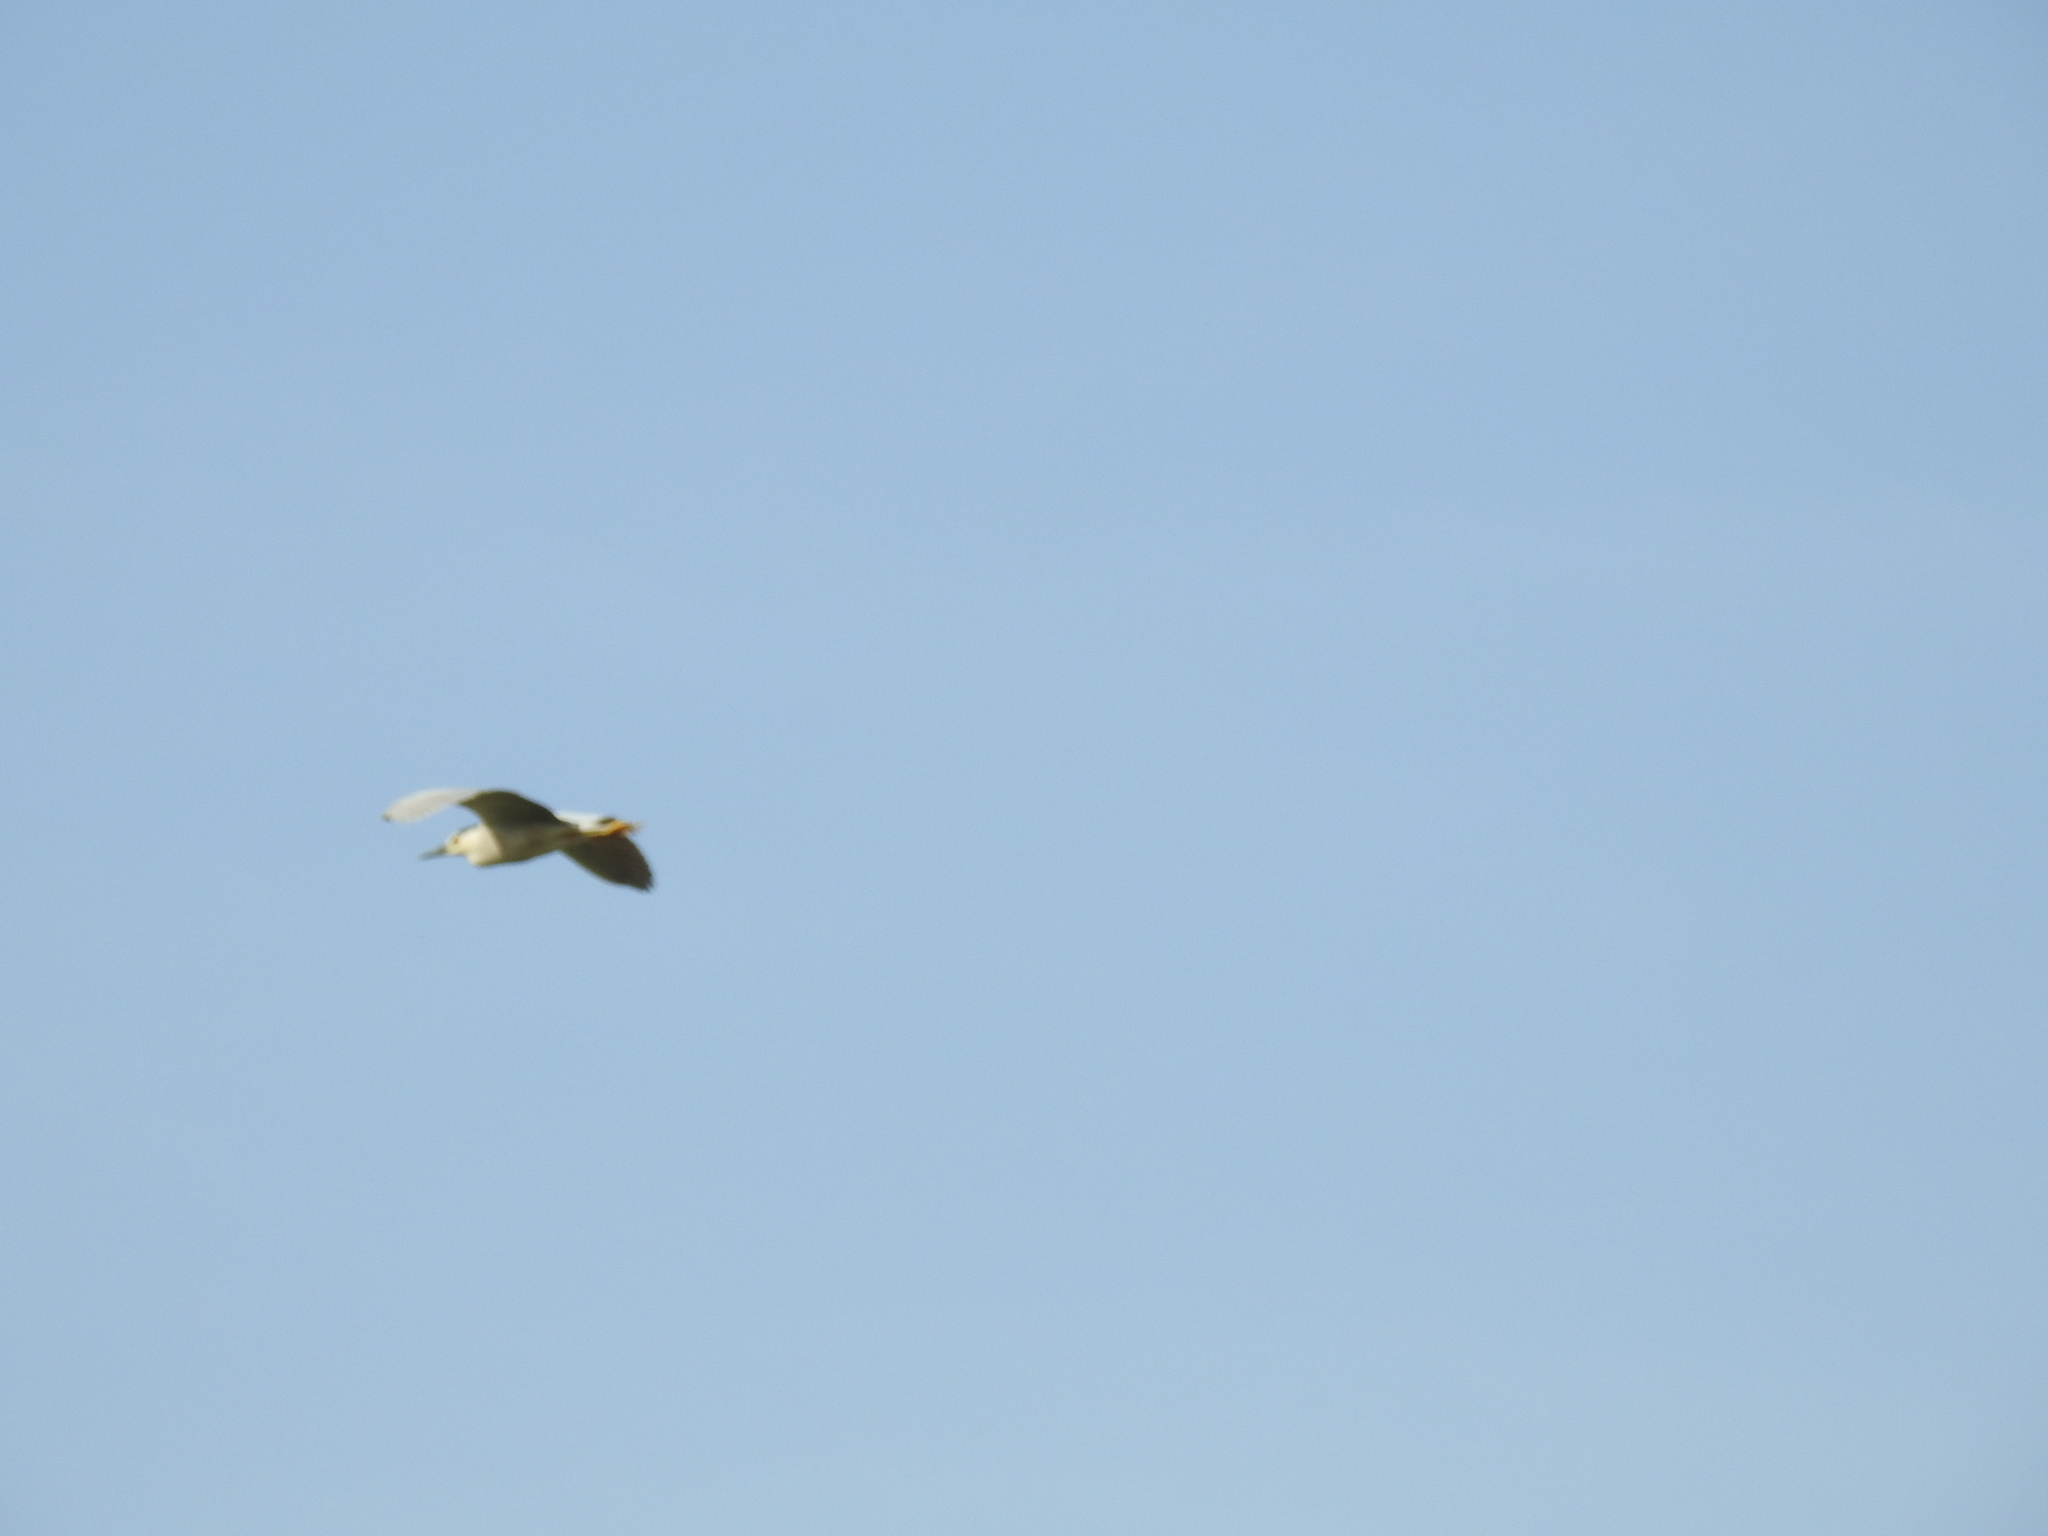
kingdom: Animalia
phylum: Chordata
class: Aves
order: Pelecaniformes
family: Ardeidae
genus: Nycticorax
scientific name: Nycticorax nycticorax
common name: Black-crowned night heron
